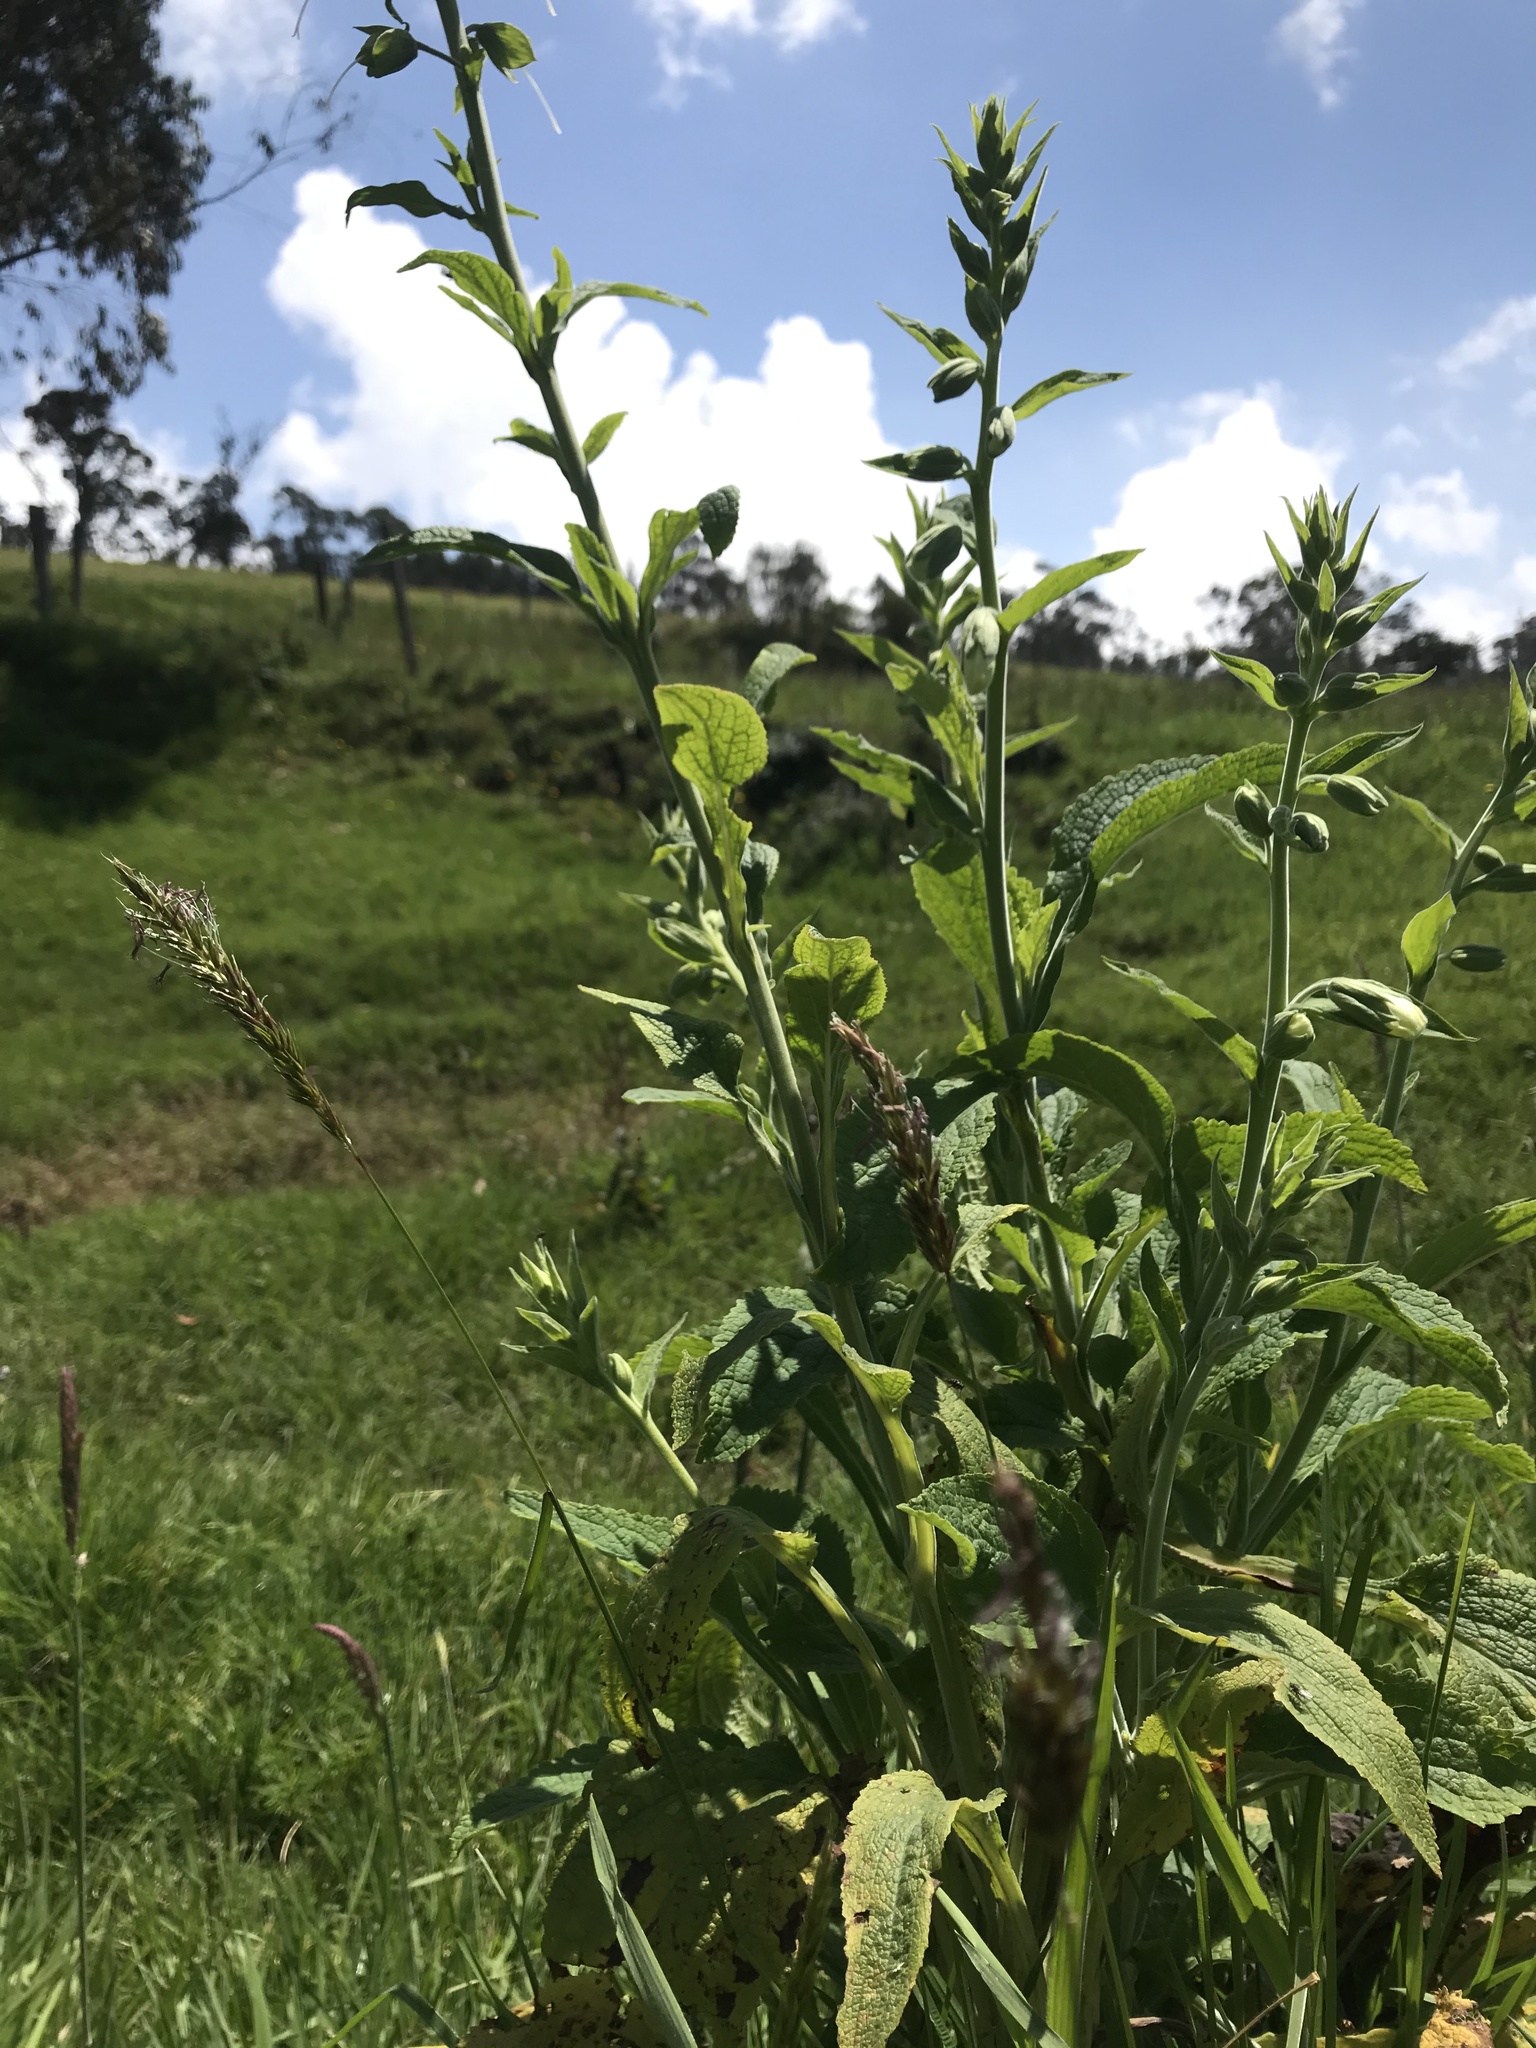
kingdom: Plantae
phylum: Tracheophyta
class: Magnoliopsida
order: Lamiales
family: Plantaginaceae
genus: Digitalis
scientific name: Digitalis purpurea
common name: Foxglove
